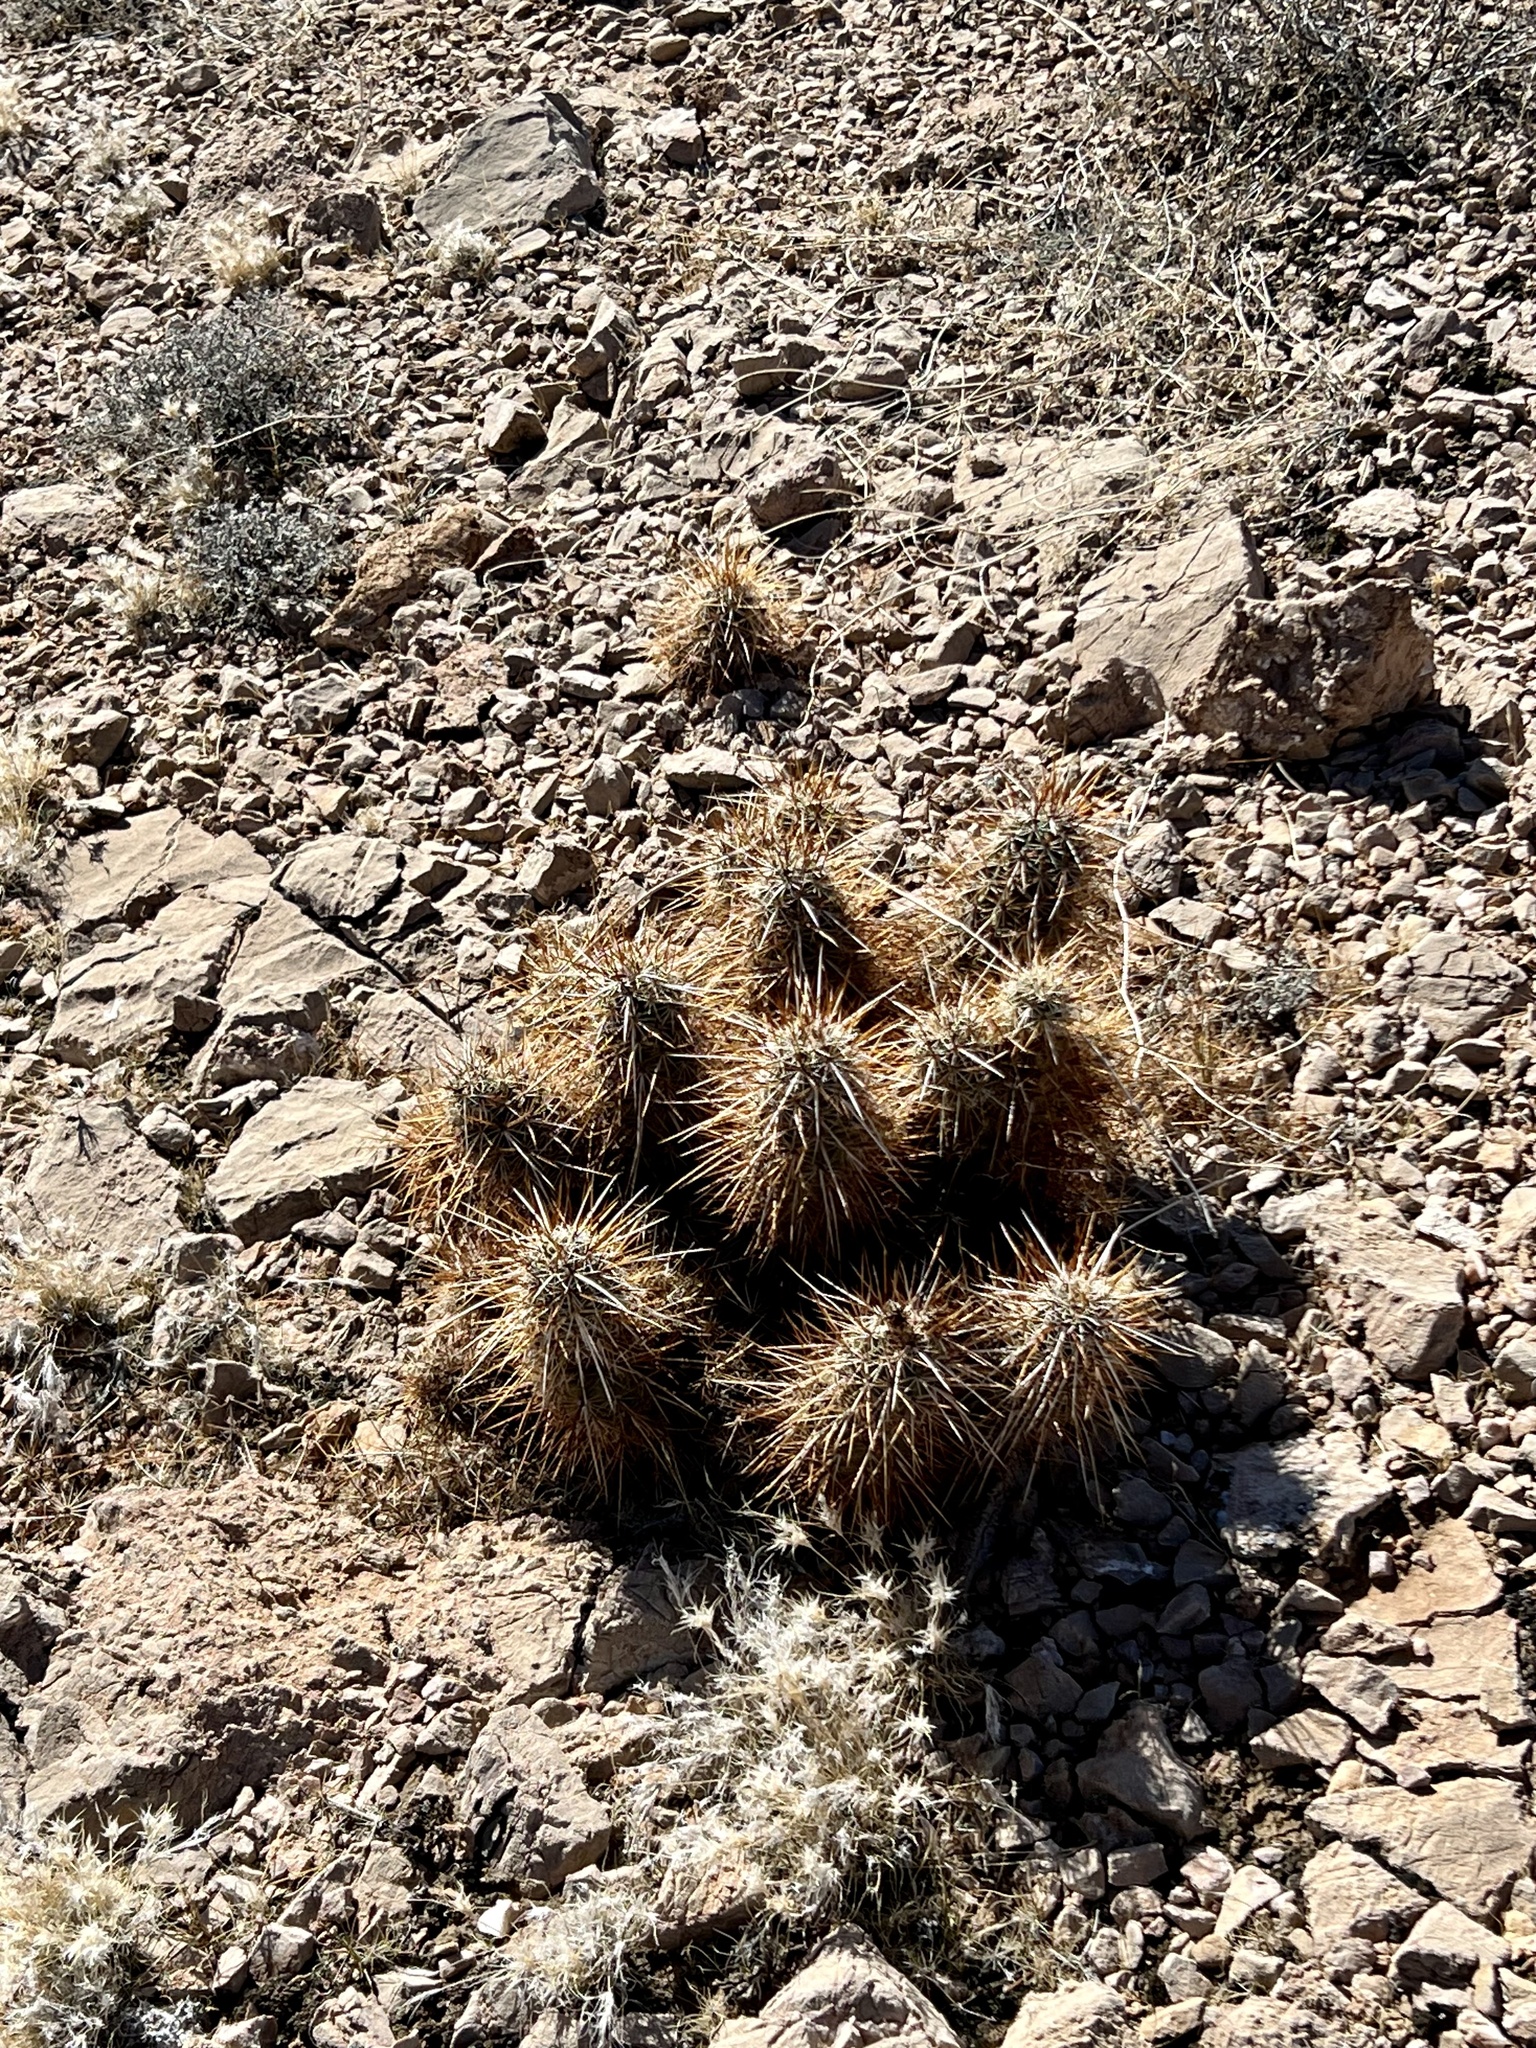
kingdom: Plantae
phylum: Tracheophyta
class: Magnoliopsida
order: Caryophyllales
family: Cactaceae
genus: Echinocereus
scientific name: Echinocereus engelmannii
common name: Engelmann's hedgehog cactus
